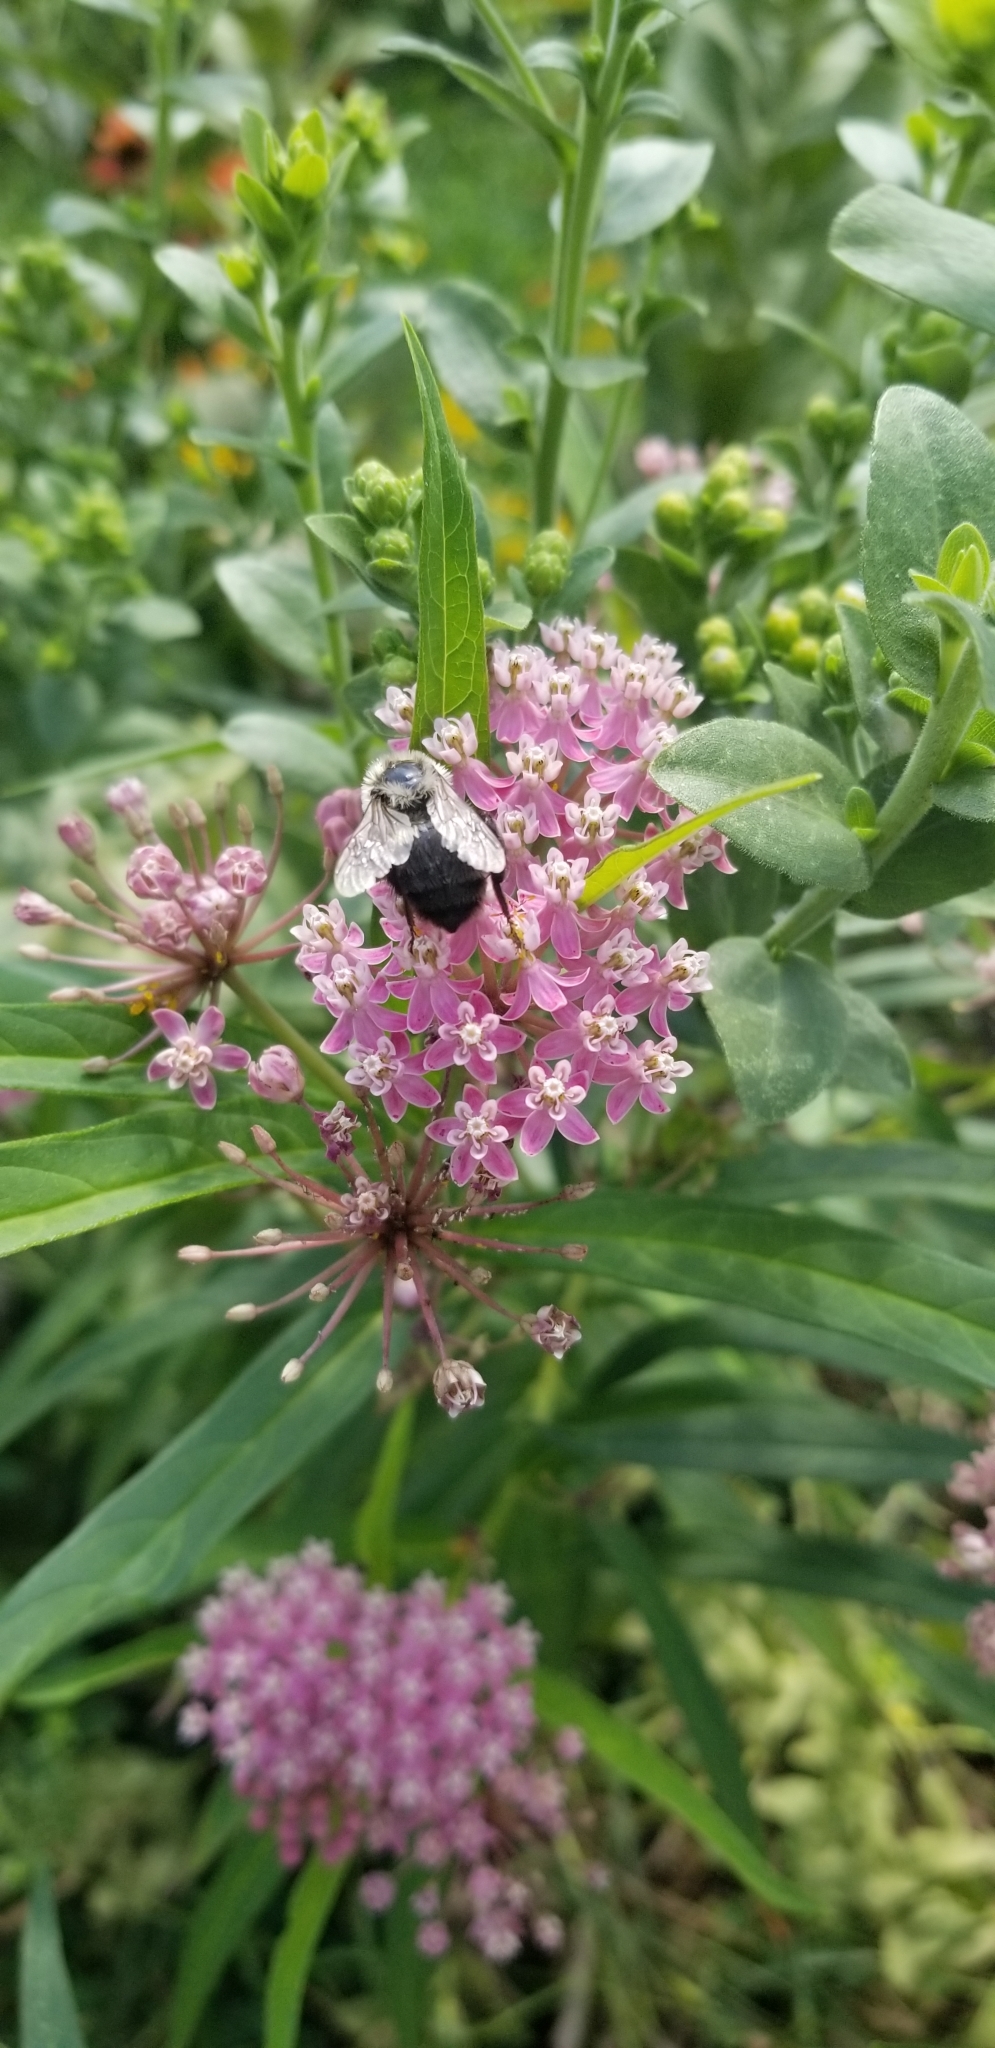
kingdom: Animalia
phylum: Arthropoda
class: Insecta
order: Hymenoptera
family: Apidae
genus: Bombus
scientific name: Bombus impatiens
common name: Common eastern bumble bee
